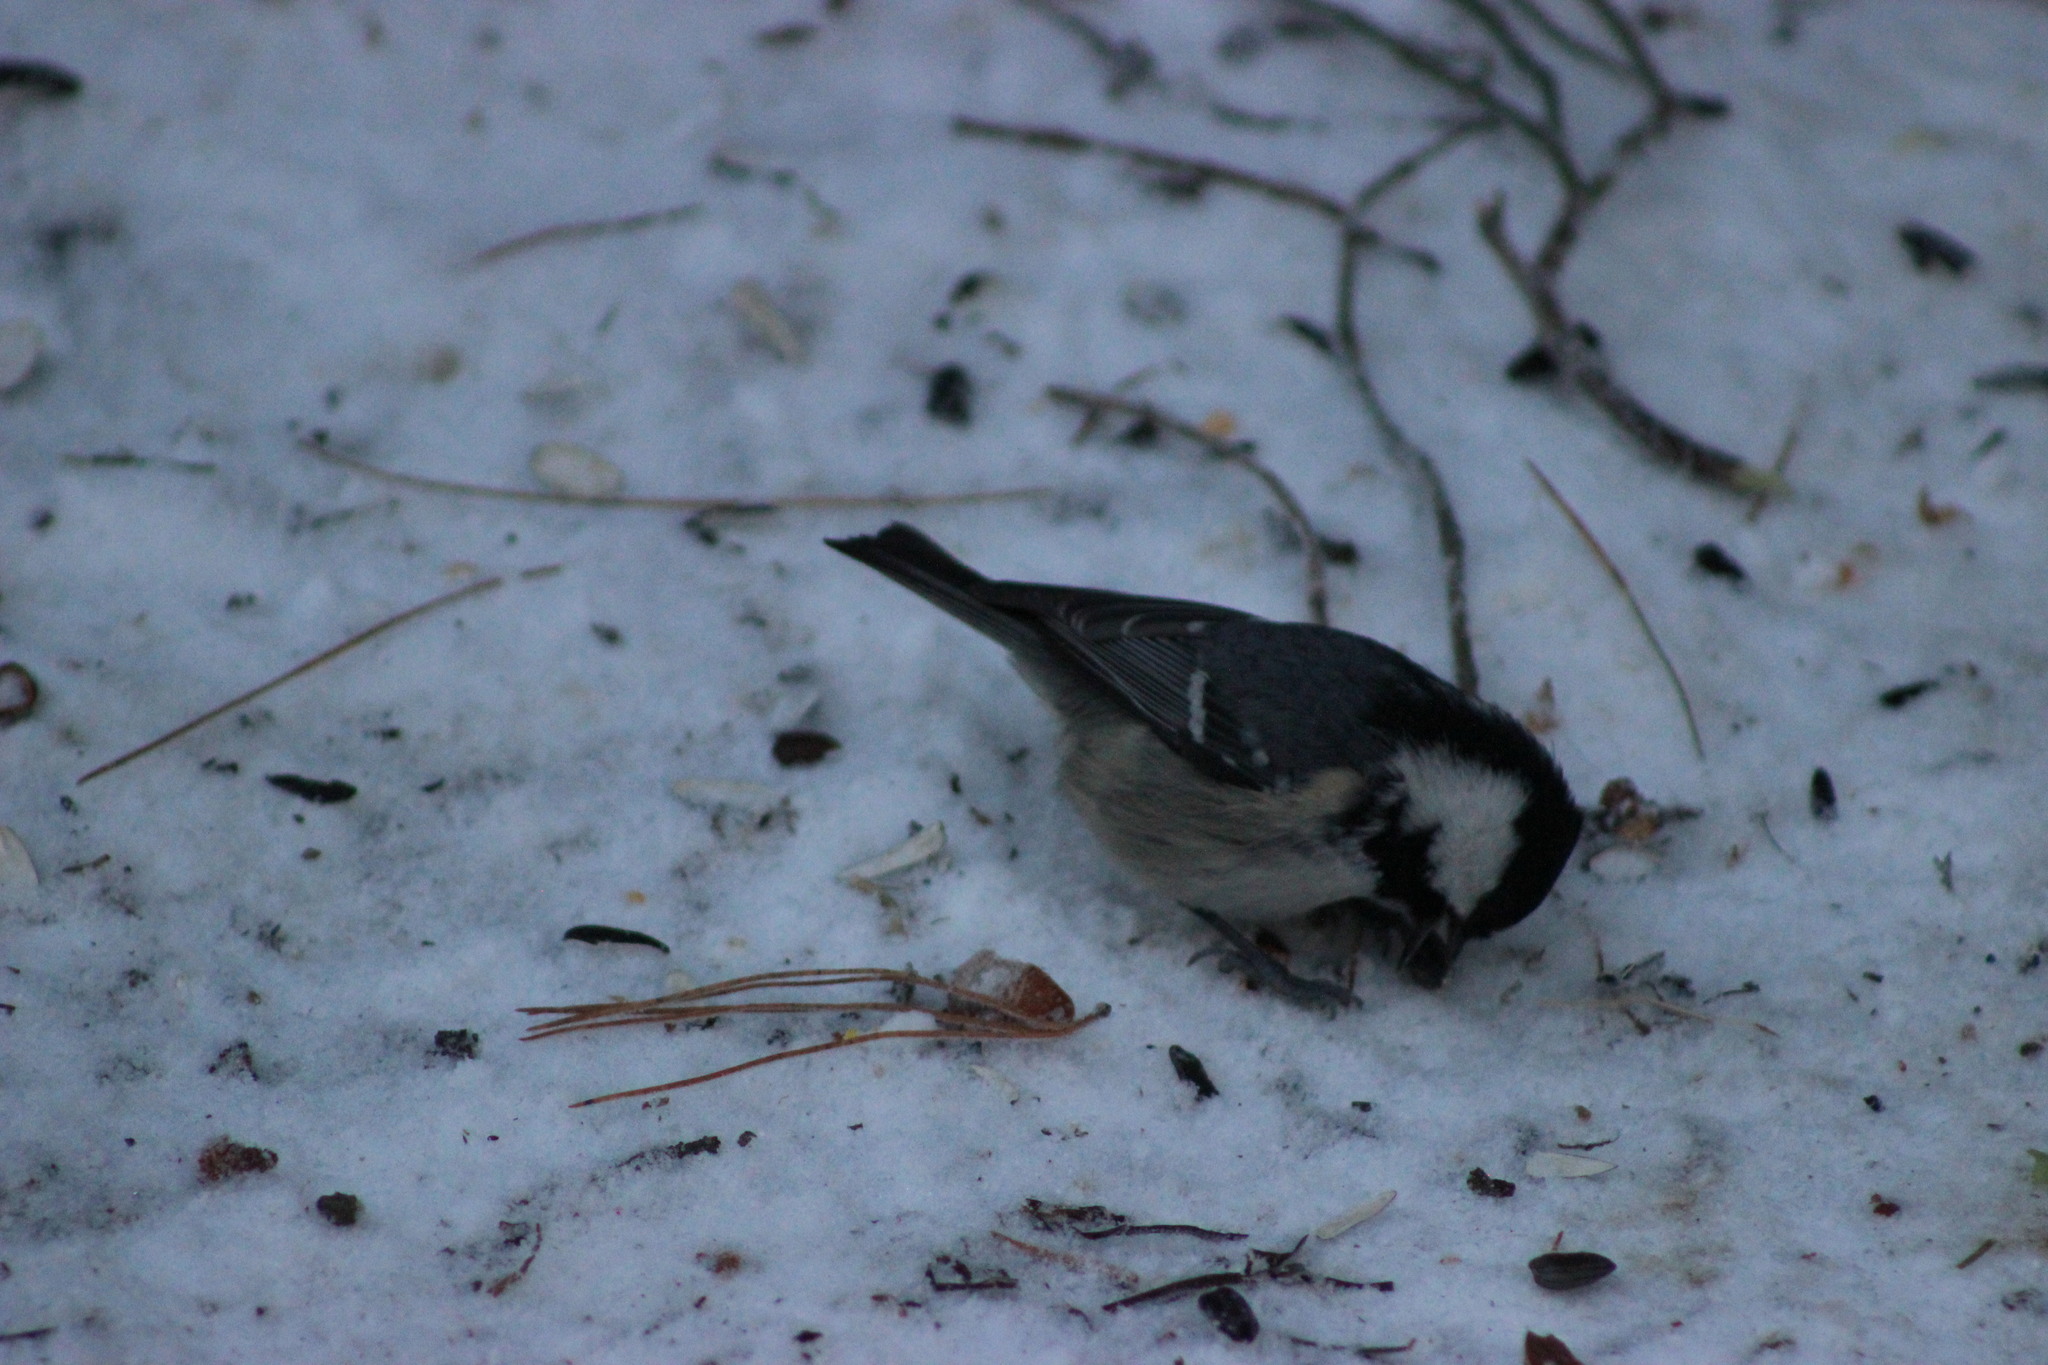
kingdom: Animalia
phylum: Chordata
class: Aves
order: Passeriformes
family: Paridae
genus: Periparus
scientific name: Periparus ater
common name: Coal tit
